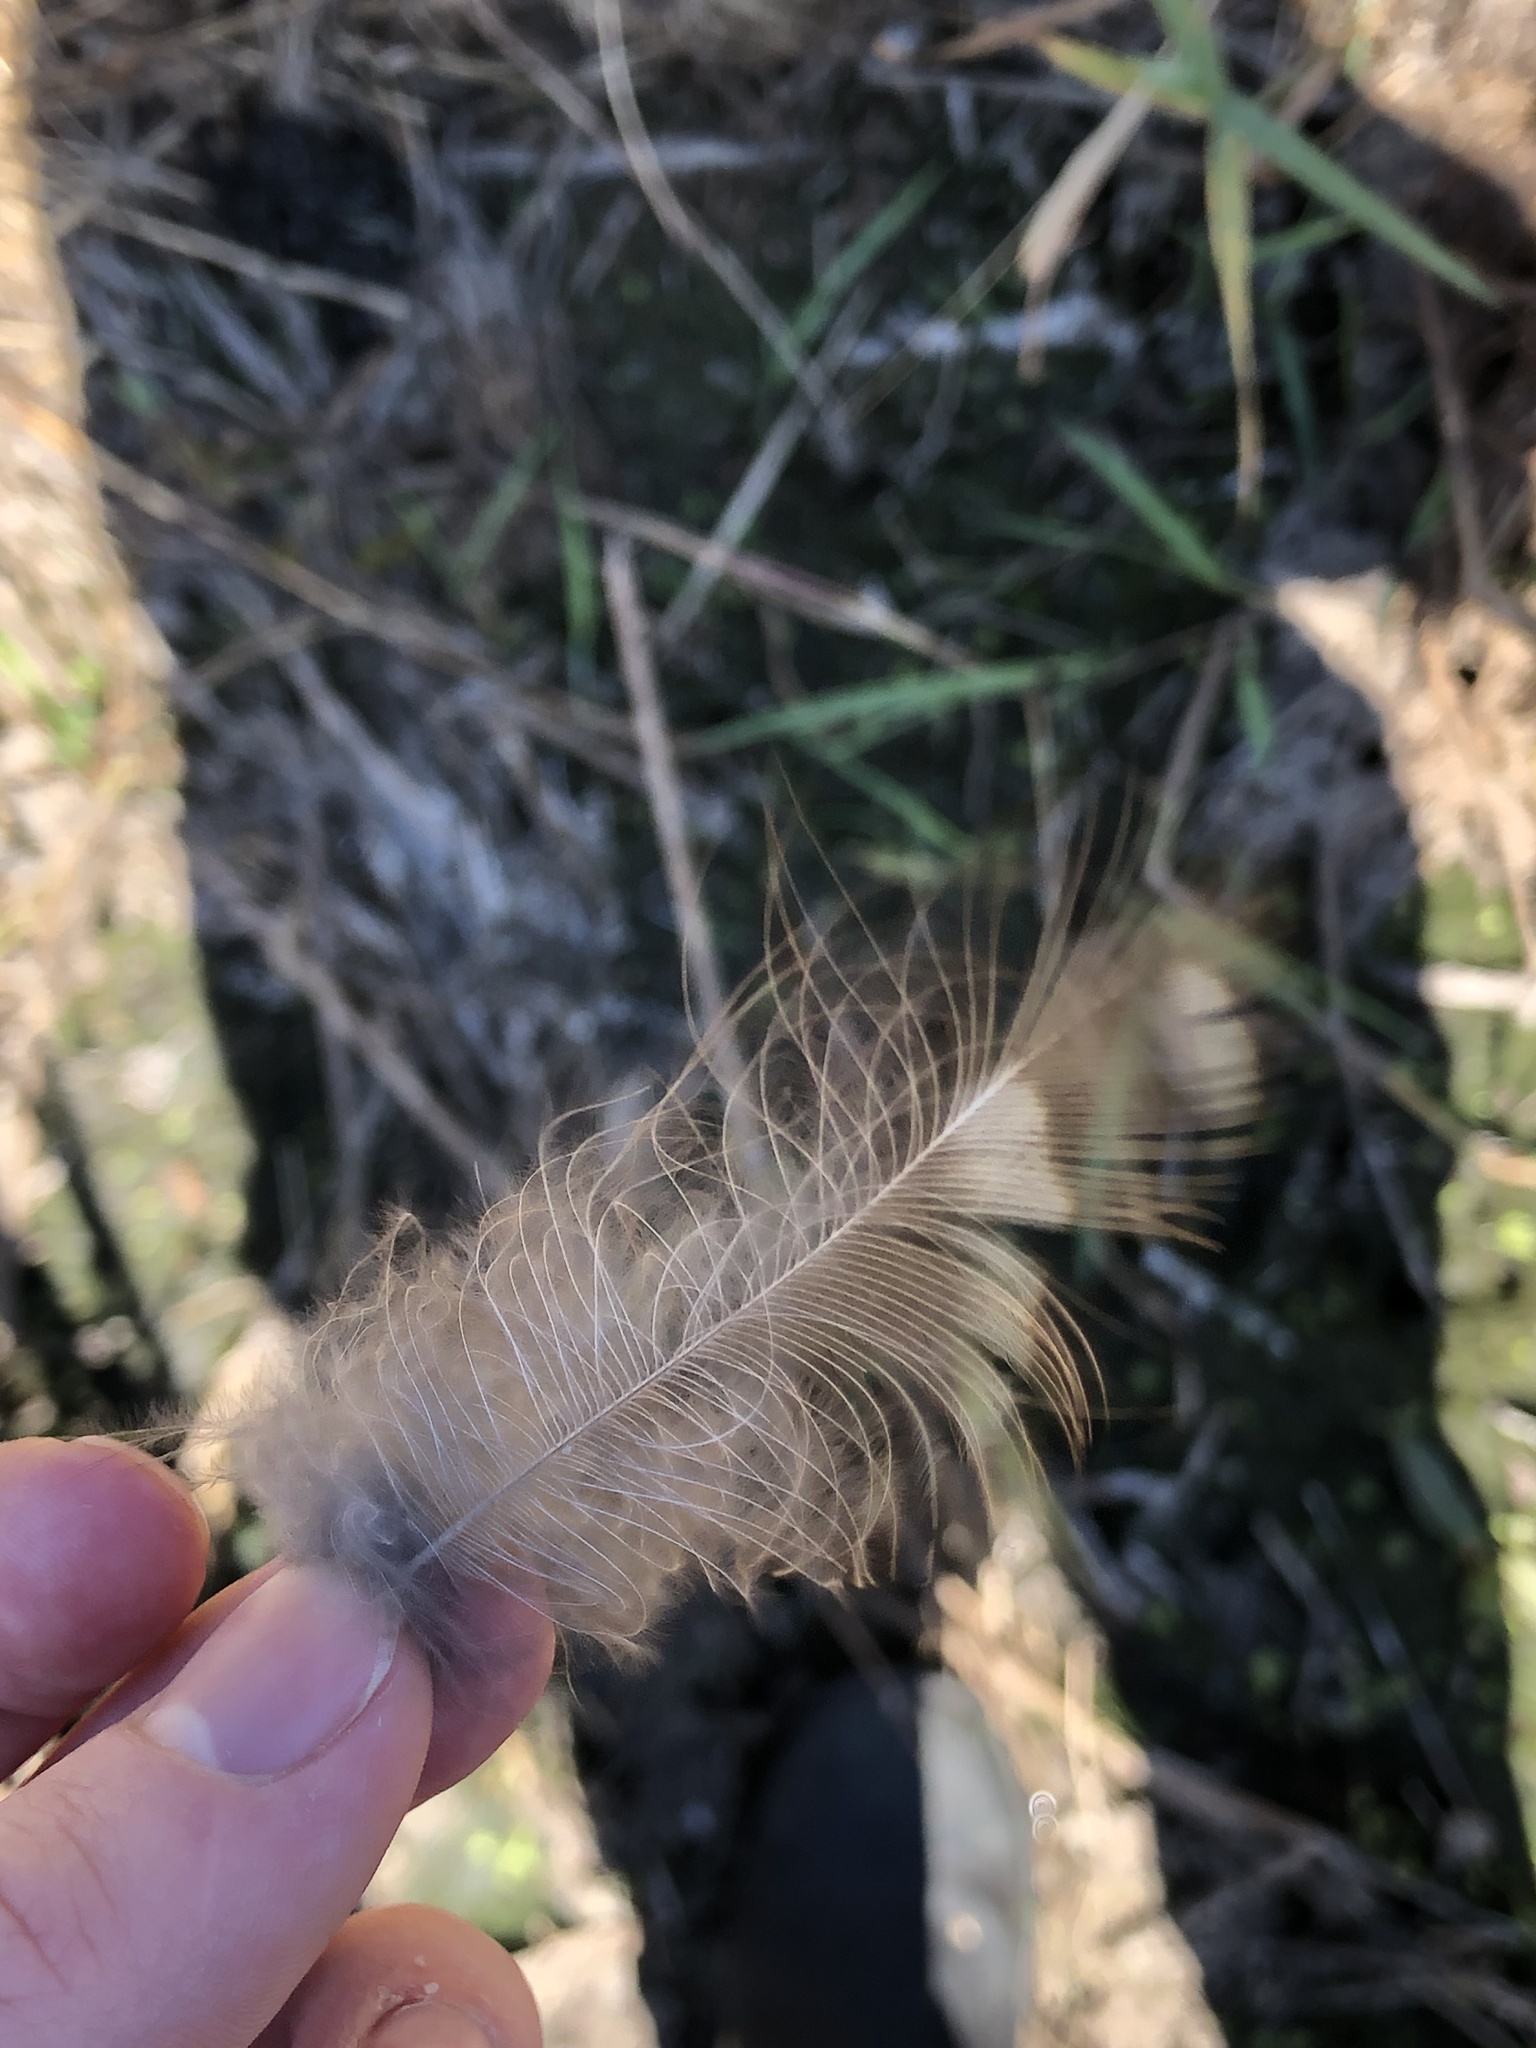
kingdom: Animalia
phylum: Chordata
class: Aves
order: Strigiformes
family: Strigidae
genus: Strix
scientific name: Strix varia
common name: Barred owl
